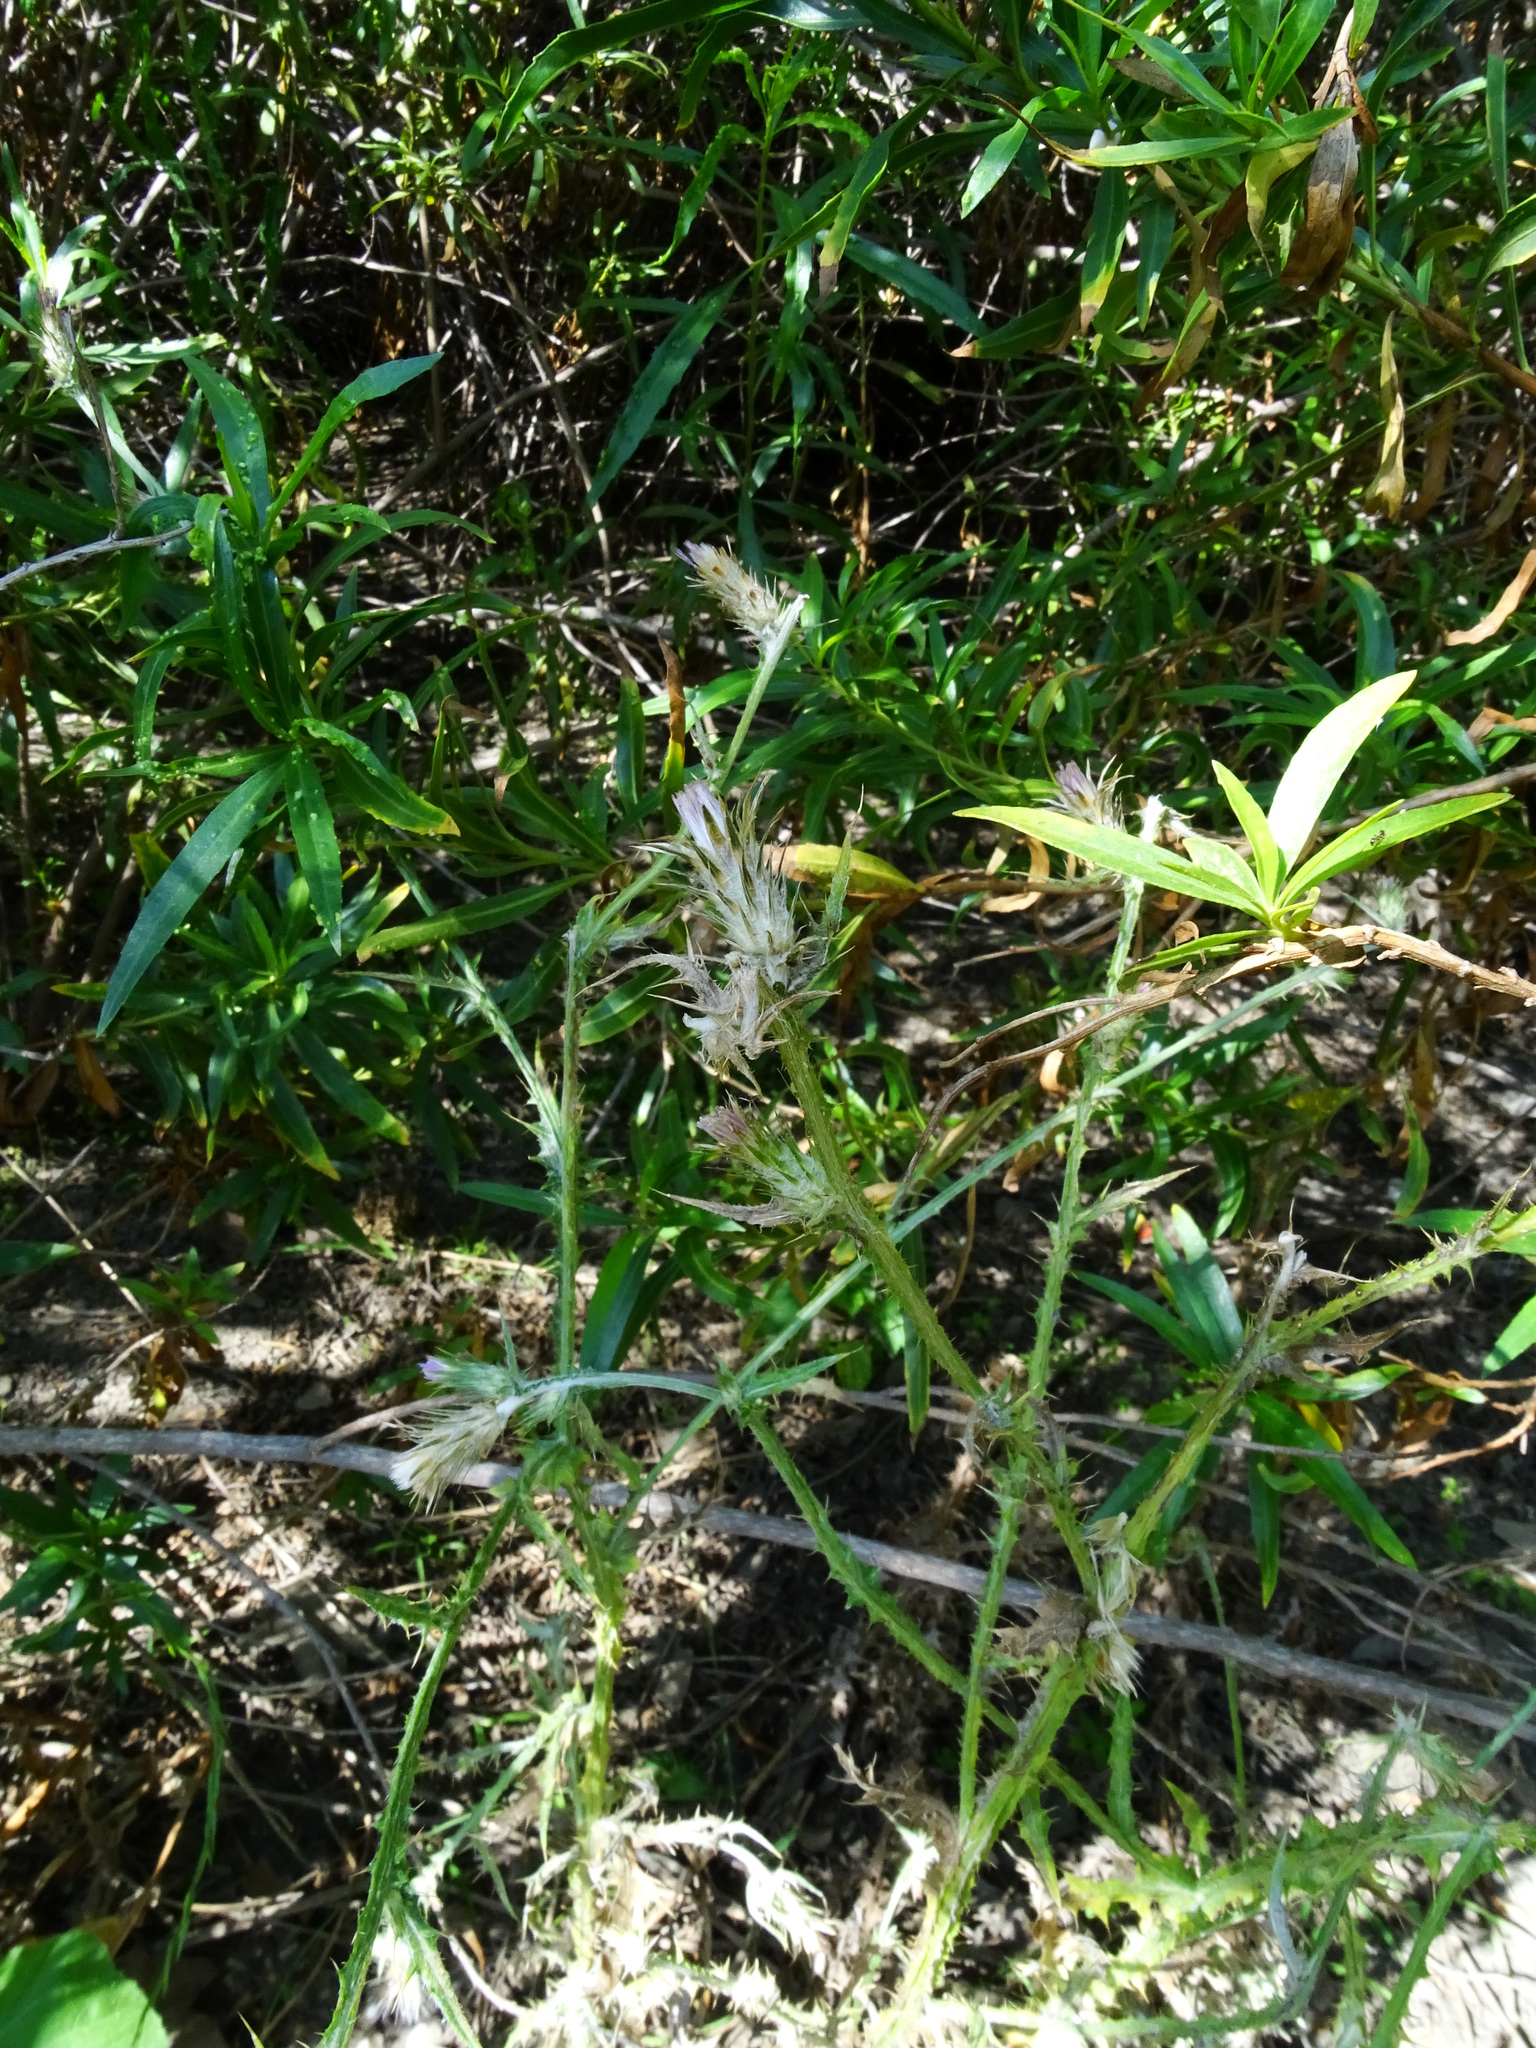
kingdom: Plantae
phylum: Tracheophyta
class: Magnoliopsida
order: Asterales
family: Asteraceae
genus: Carduus
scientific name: Carduus pycnocephalus
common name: Plymouth thistle
